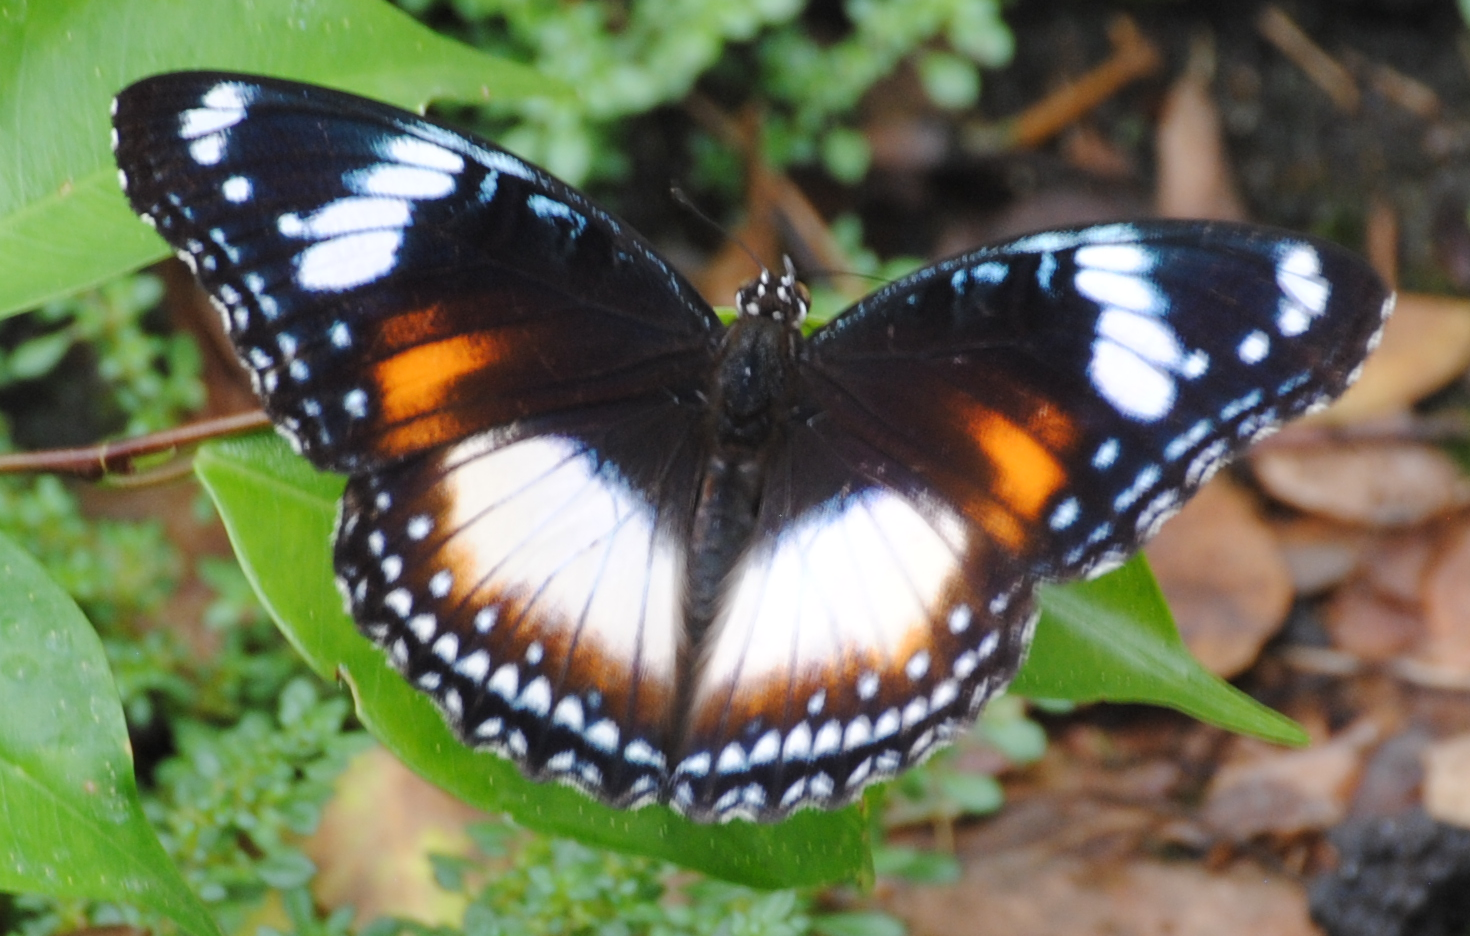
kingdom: Animalia
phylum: Arthropoda
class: Insecta
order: Lepidoptera
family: Nymphalidae
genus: Hypolimnas
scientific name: Hypolimnas bolina
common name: Great eggfly
